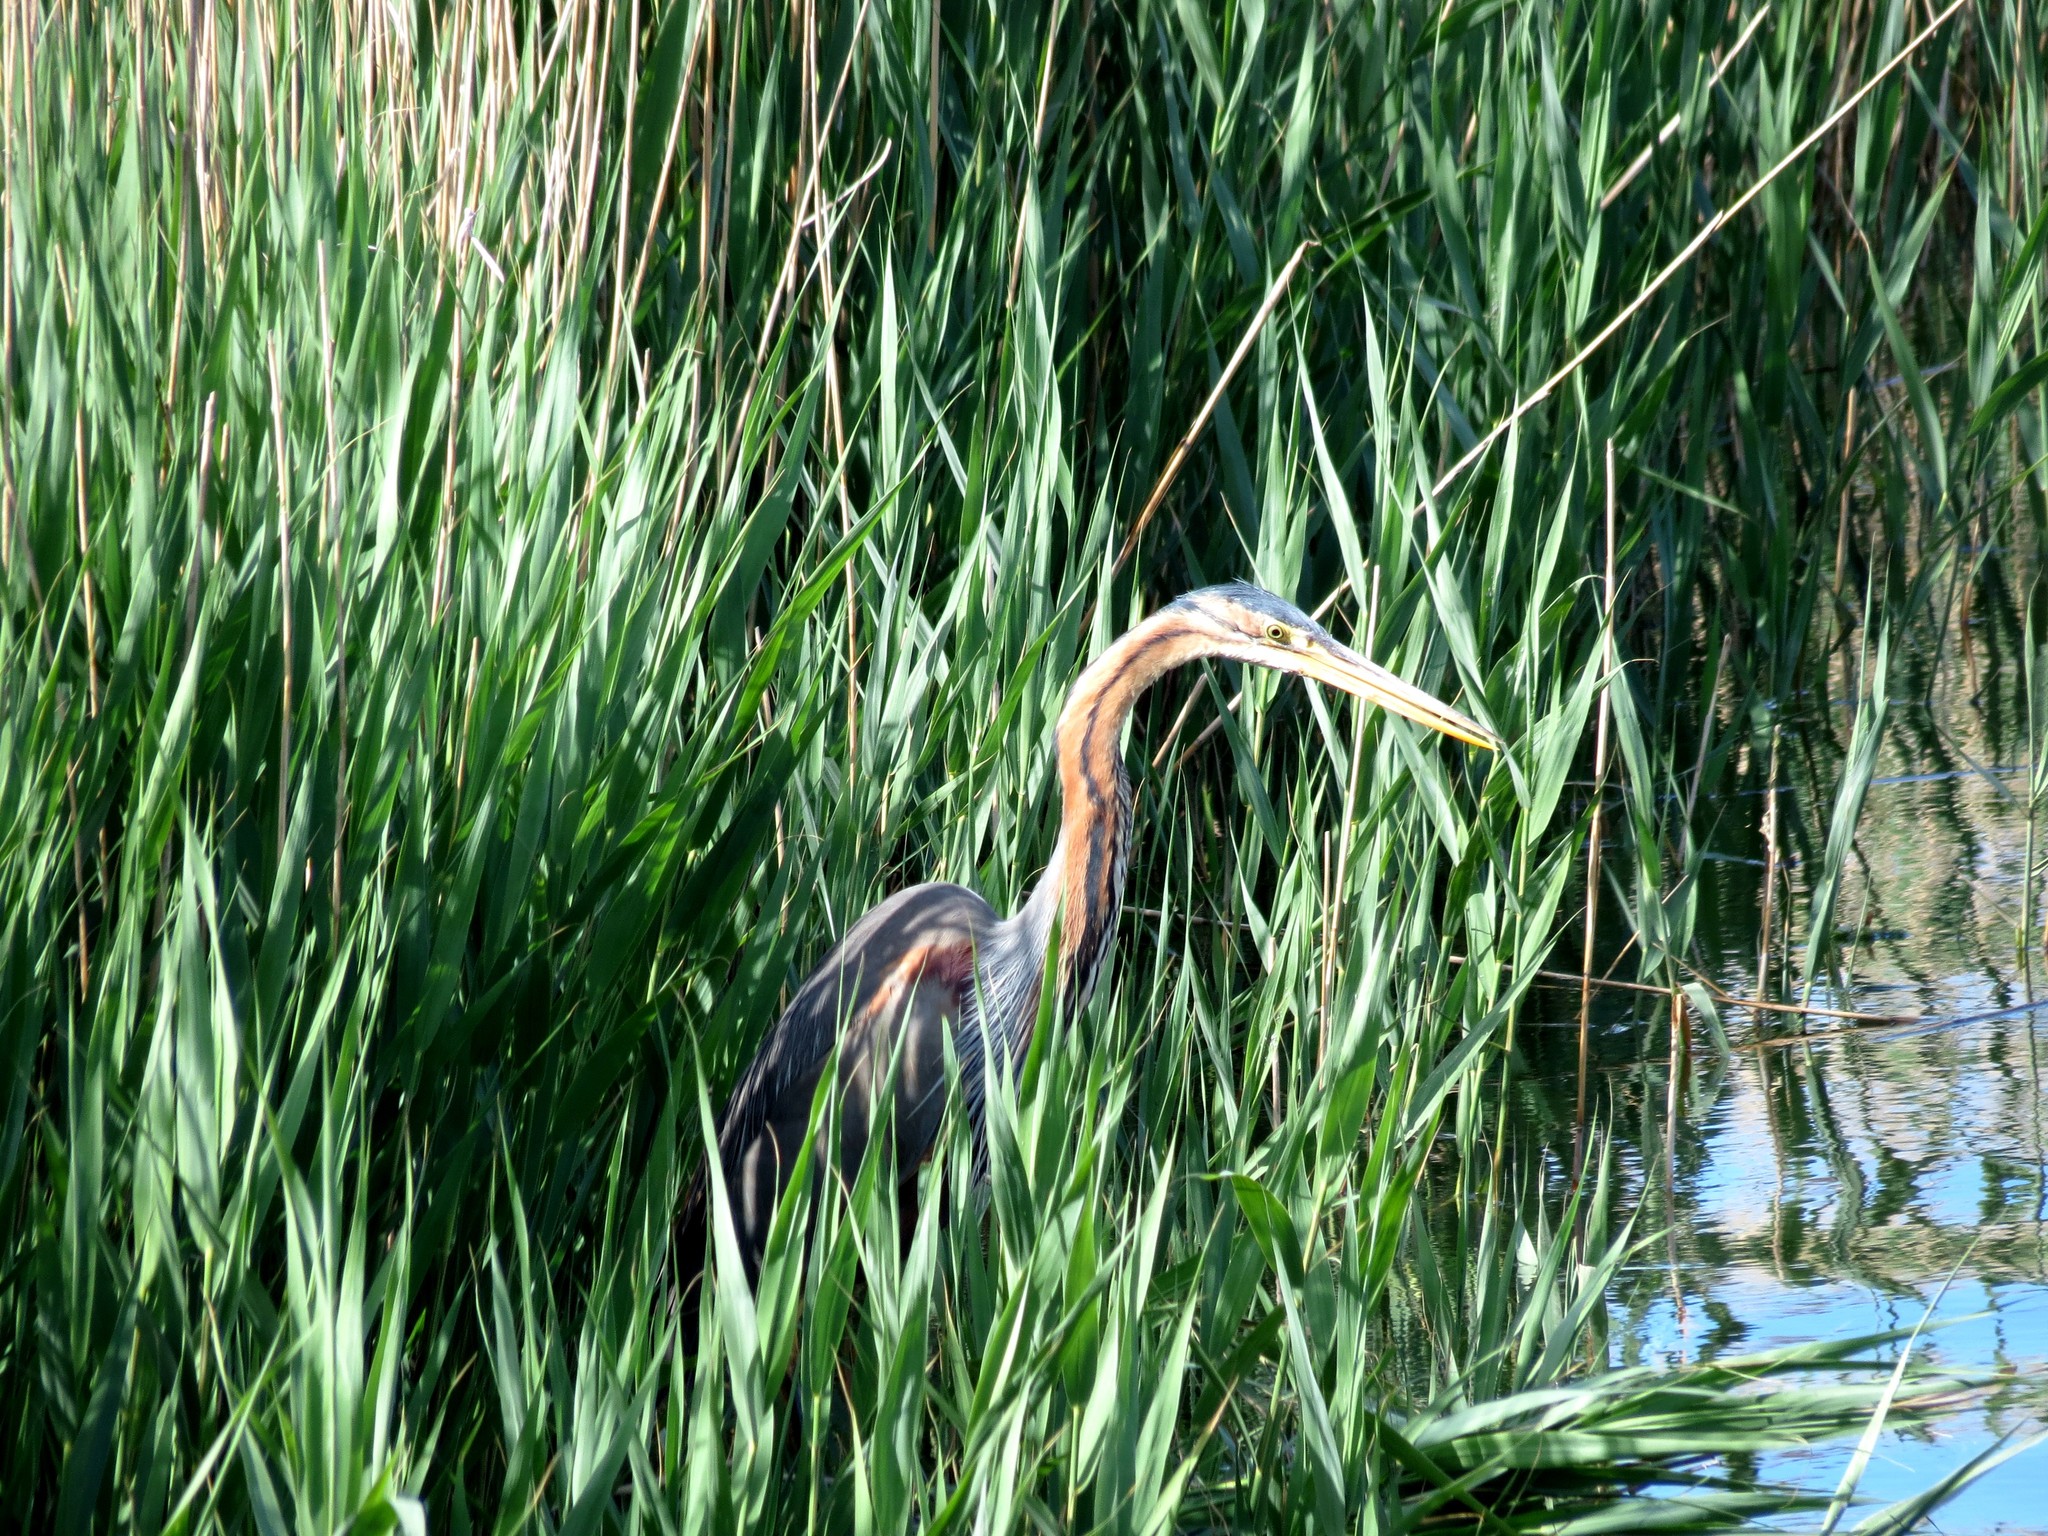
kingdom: Animalia
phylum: Chordata
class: Aves
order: Pelecaniformes
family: Ardeidae
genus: Ardea
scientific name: Ardea purpurea
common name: Purple heron
